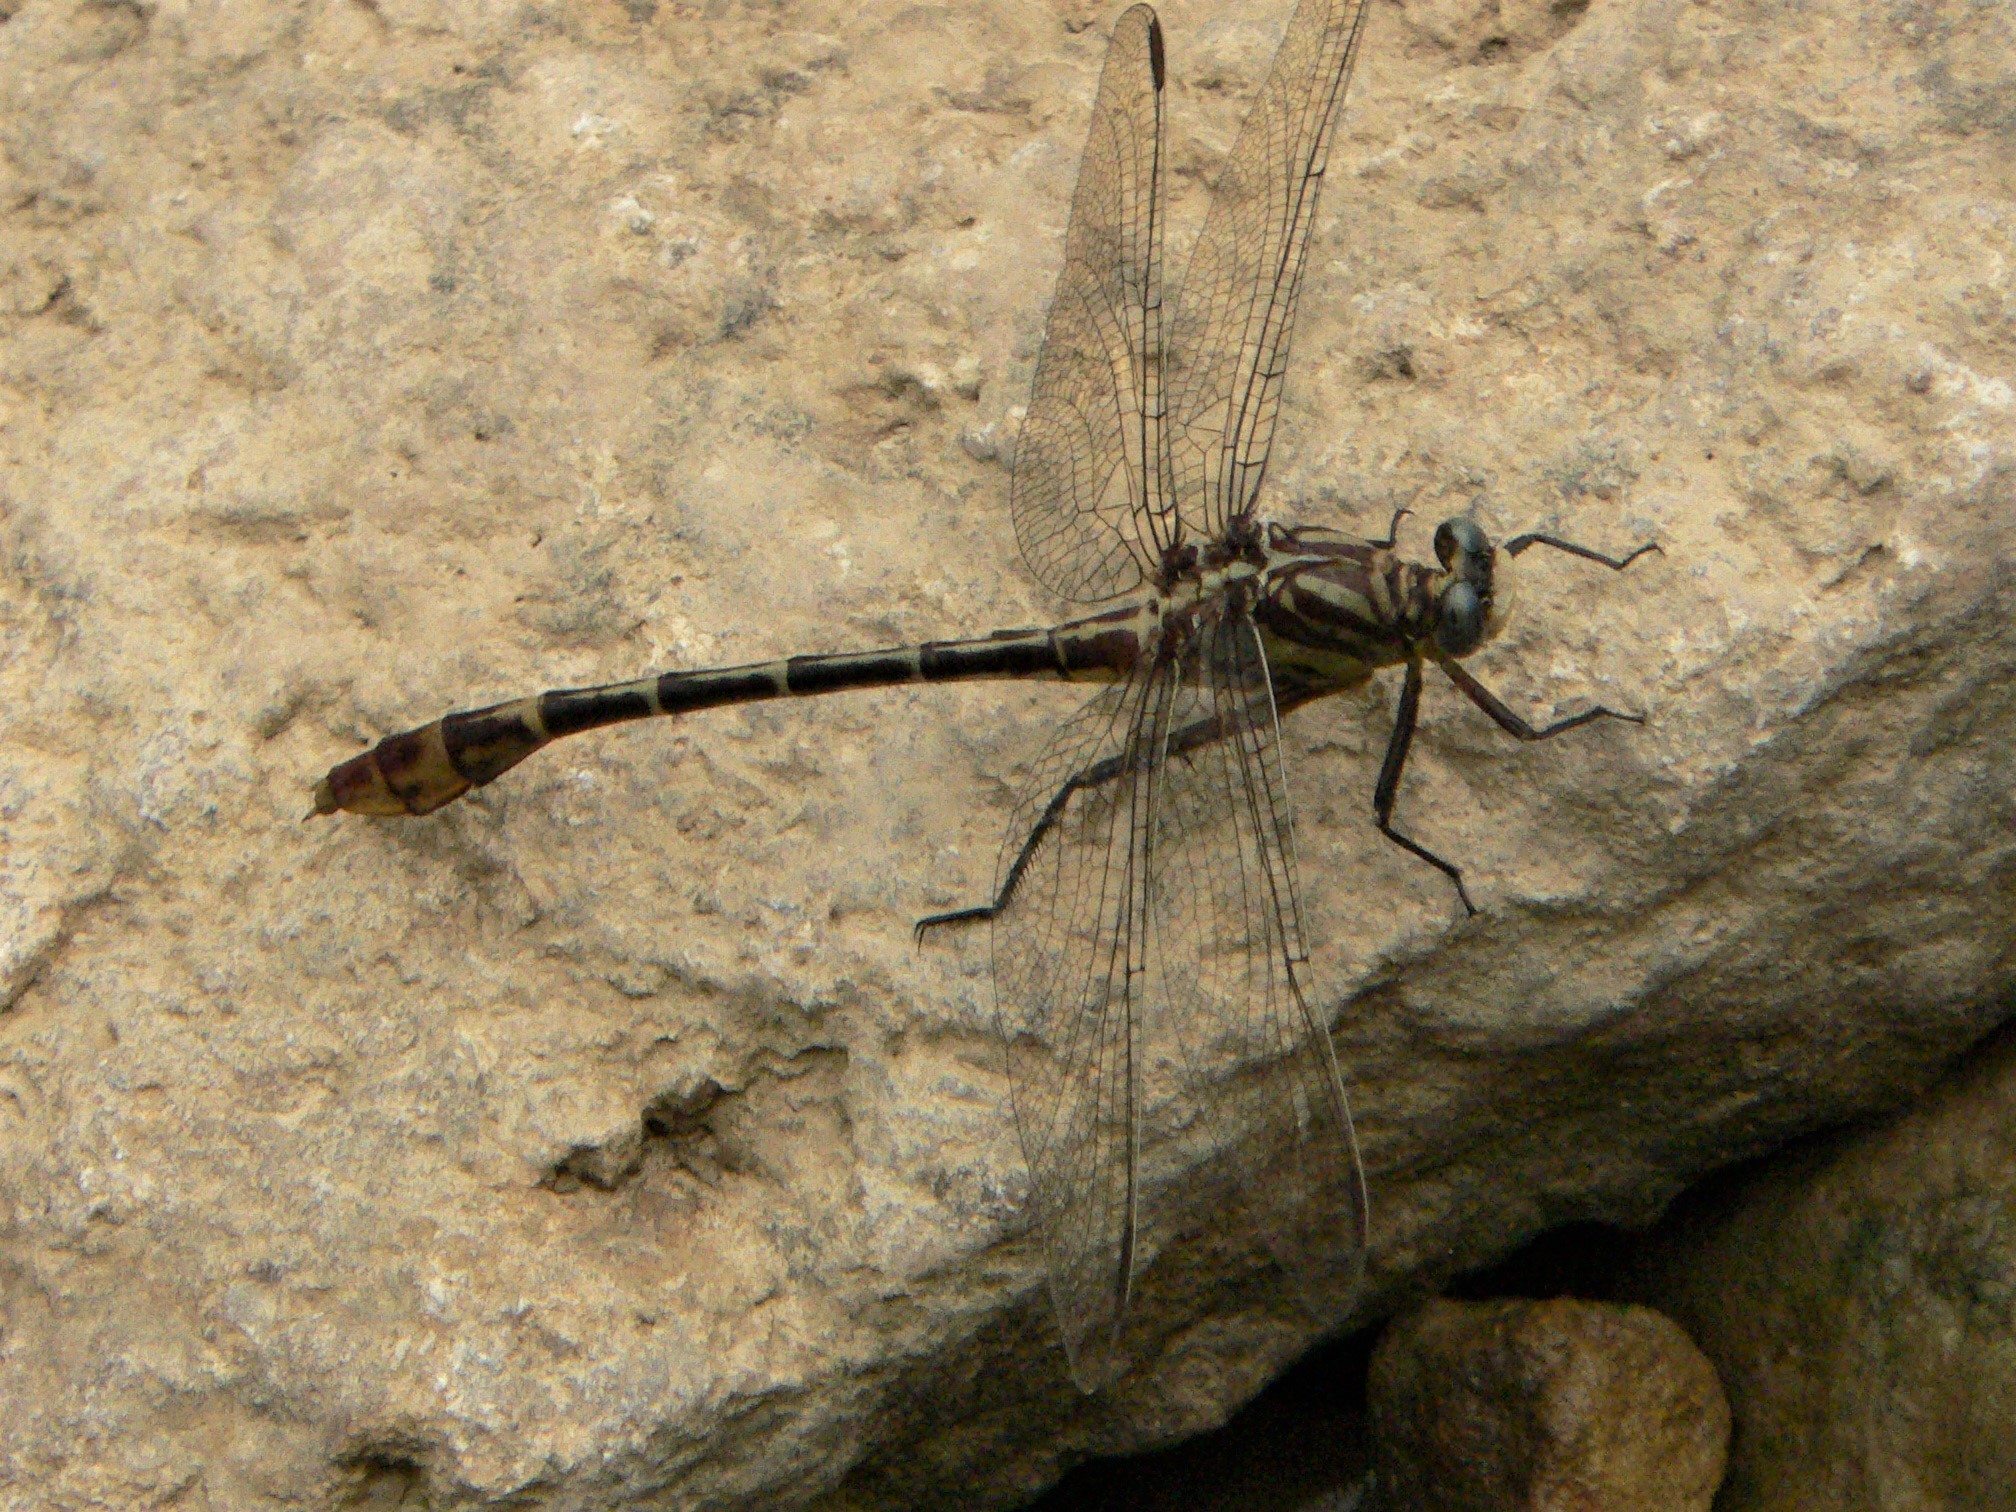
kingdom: Animalia
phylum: Arthropoda
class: Insecta
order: Odonata
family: Gomphidae
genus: Dromogomphus
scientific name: Dromogomphus spoliatus
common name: Flag-tailed spinyleg
